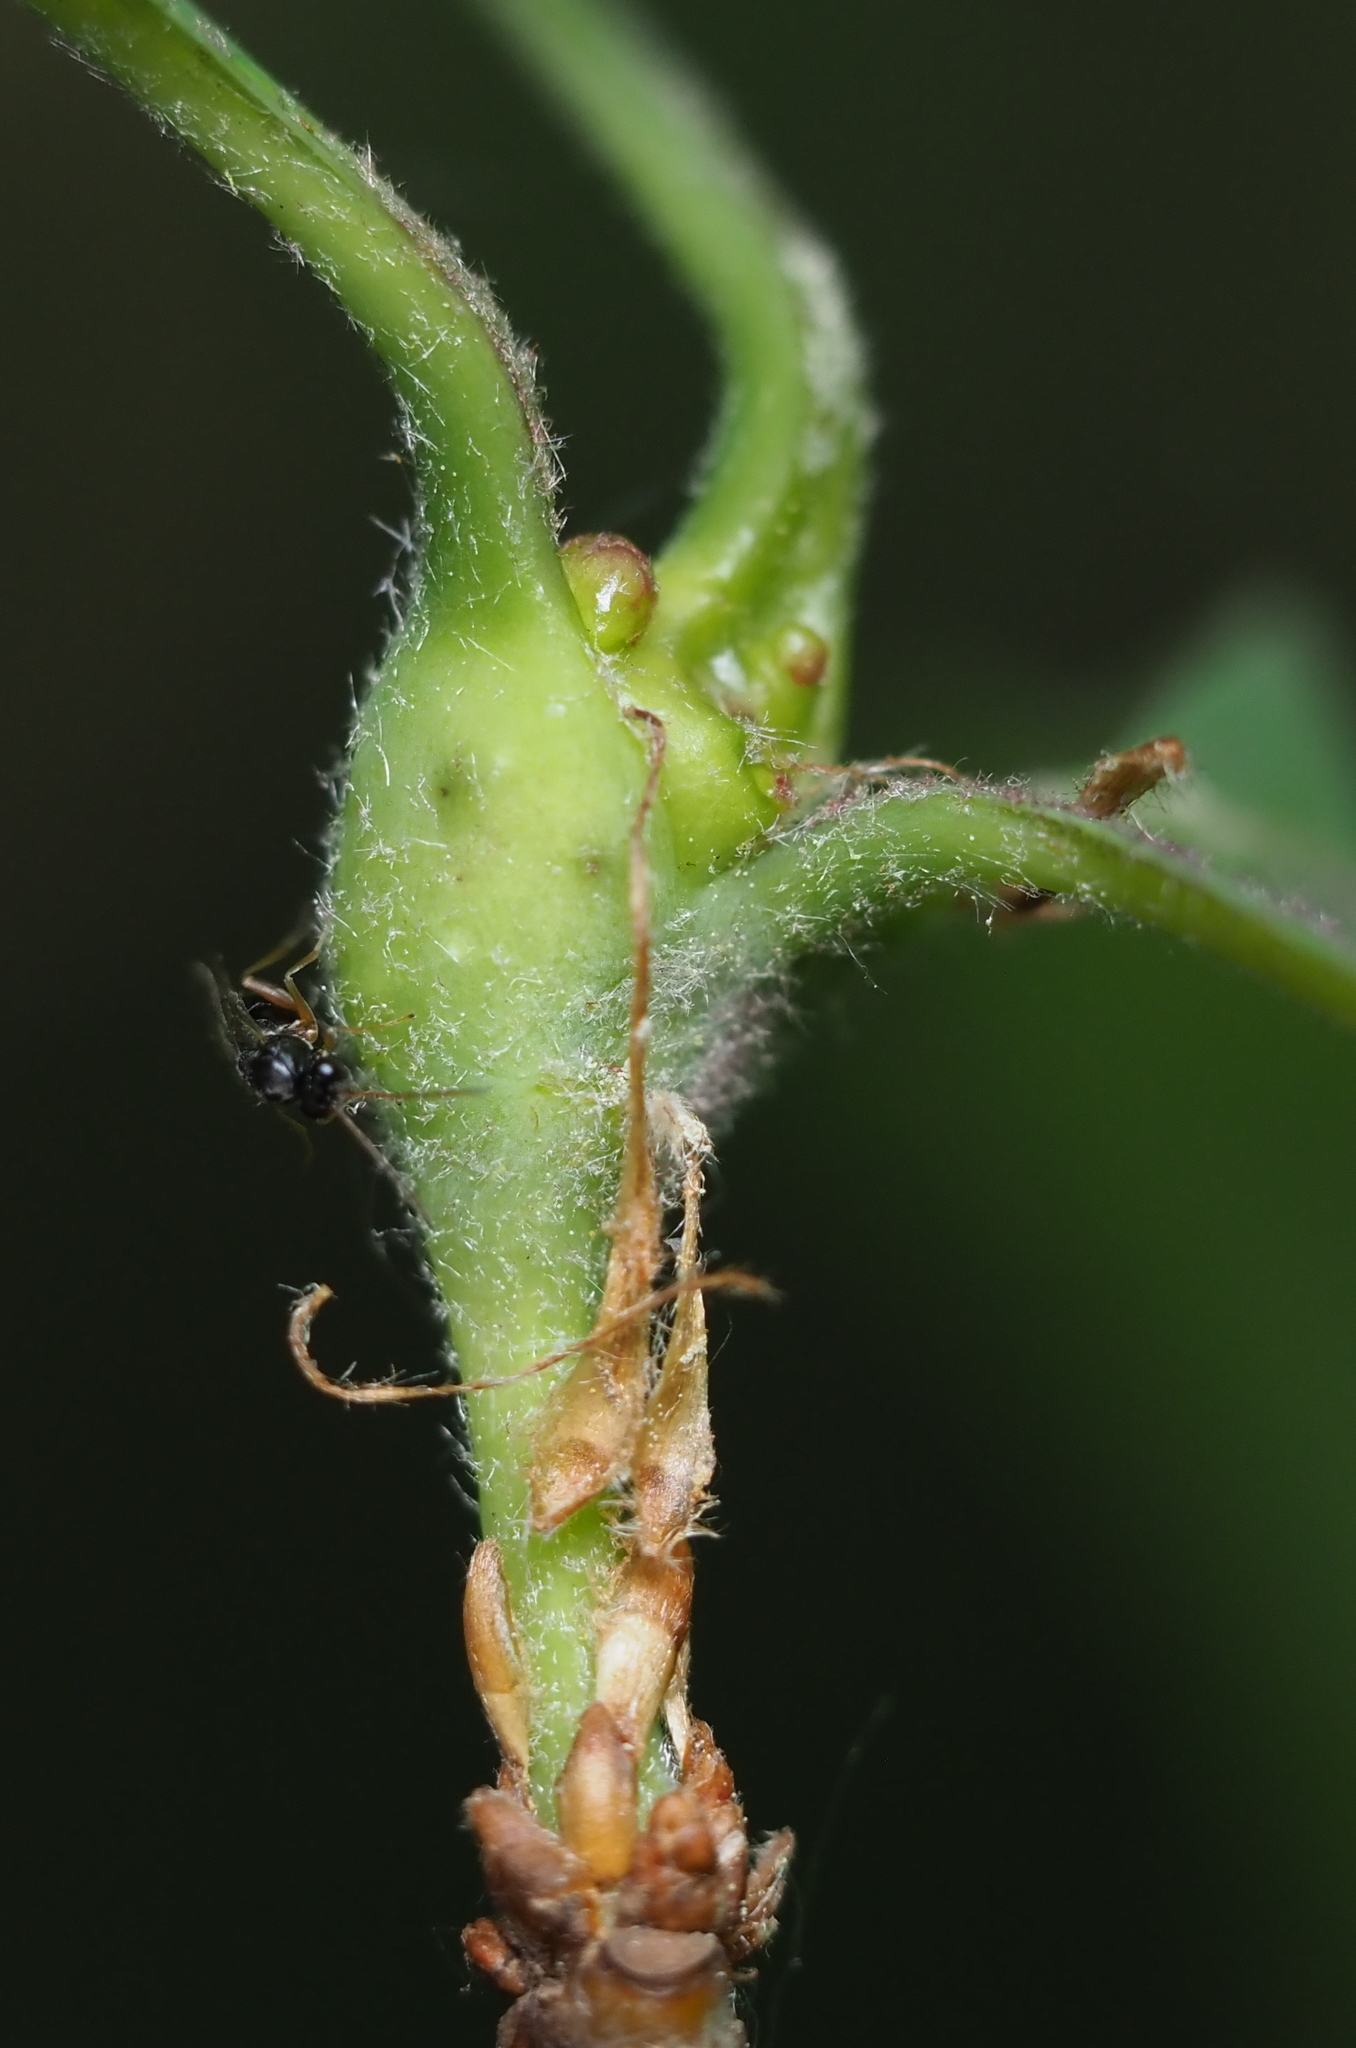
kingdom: Animalia
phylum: Arthropoda
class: Insecta
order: Hymenoptera
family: Cynipidae
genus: Callirhytis
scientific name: Callirhytis clavula
